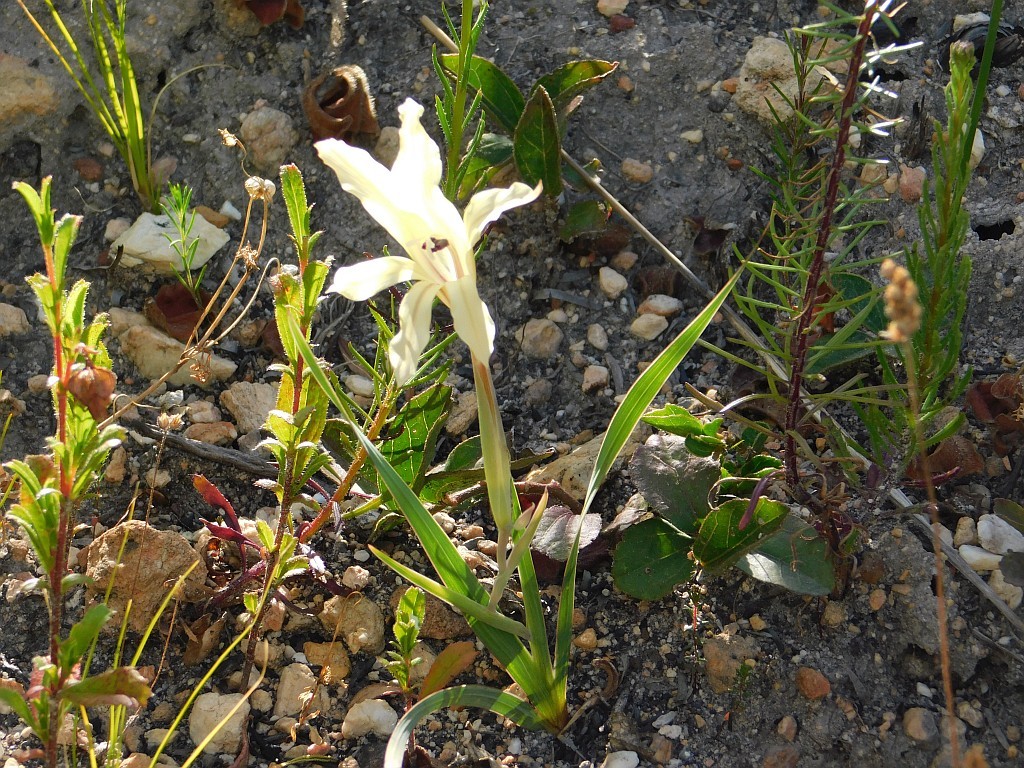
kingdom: Plantae
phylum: Tracheophyta
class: Liliopsida
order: Asparagales
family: Iridaceae
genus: Gladiolus
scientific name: Gladiolus floribundus
